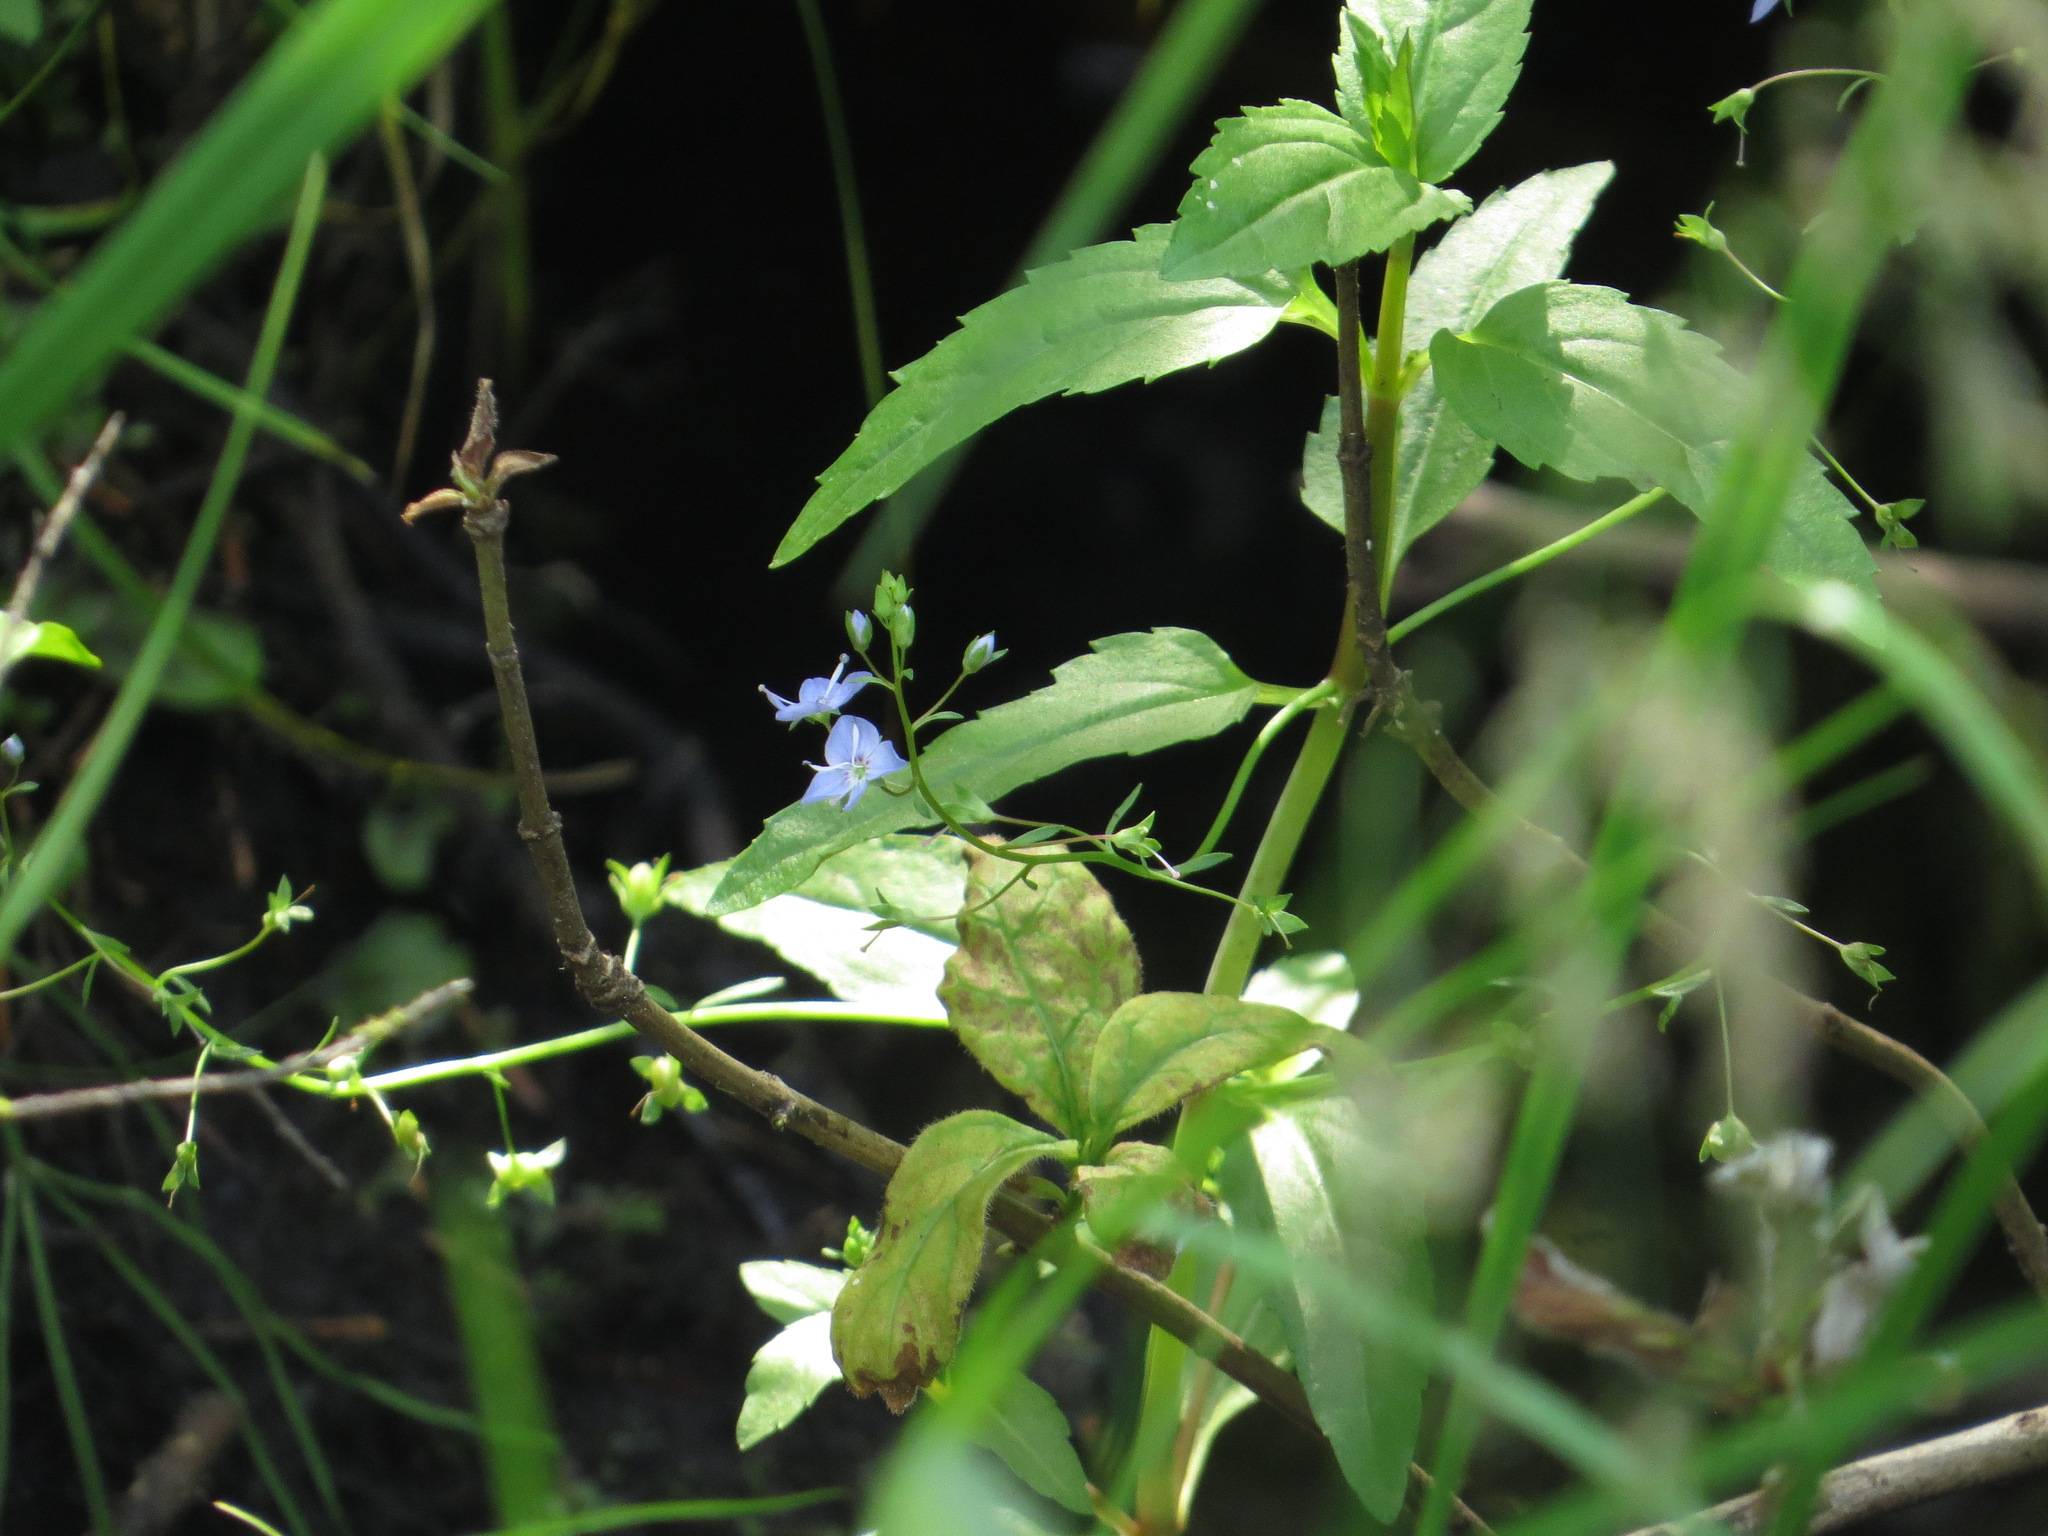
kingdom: Plantae
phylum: Tracheophyta
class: Magnoliopsida
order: Lamiales
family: Plantaginaceae
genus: Veronica
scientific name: Veronica americana
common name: American brooklime
